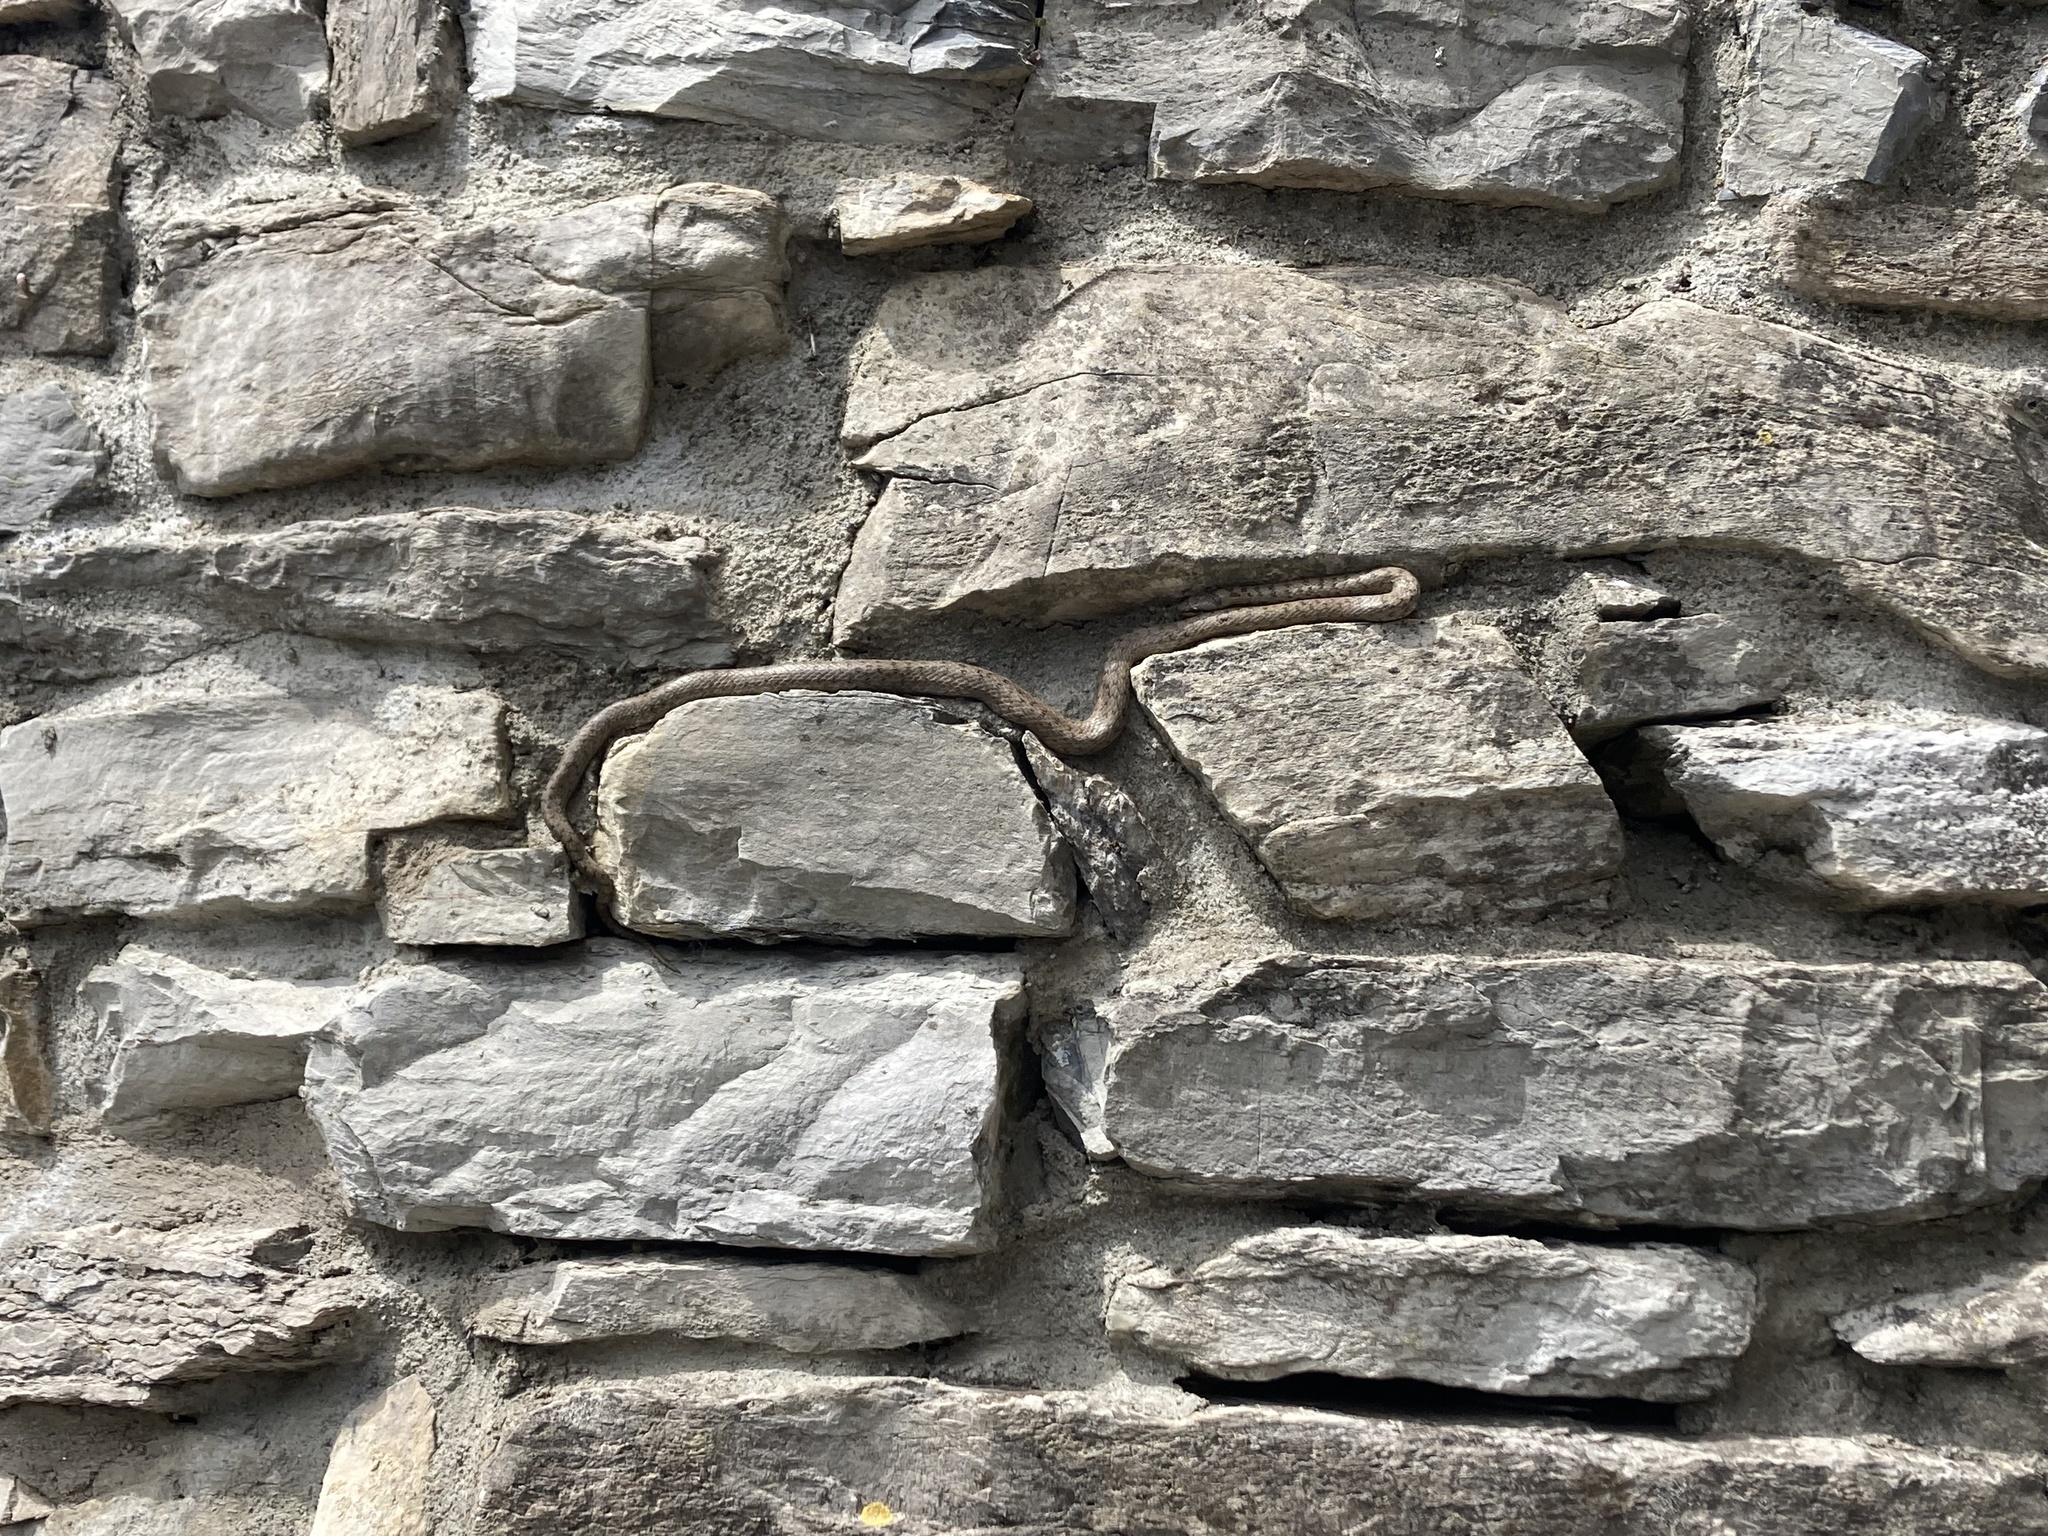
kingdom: Animalia
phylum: Chordata
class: Squamata
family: Colubridae
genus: Coronella
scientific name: Coronella austriaca
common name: Smooth snake
